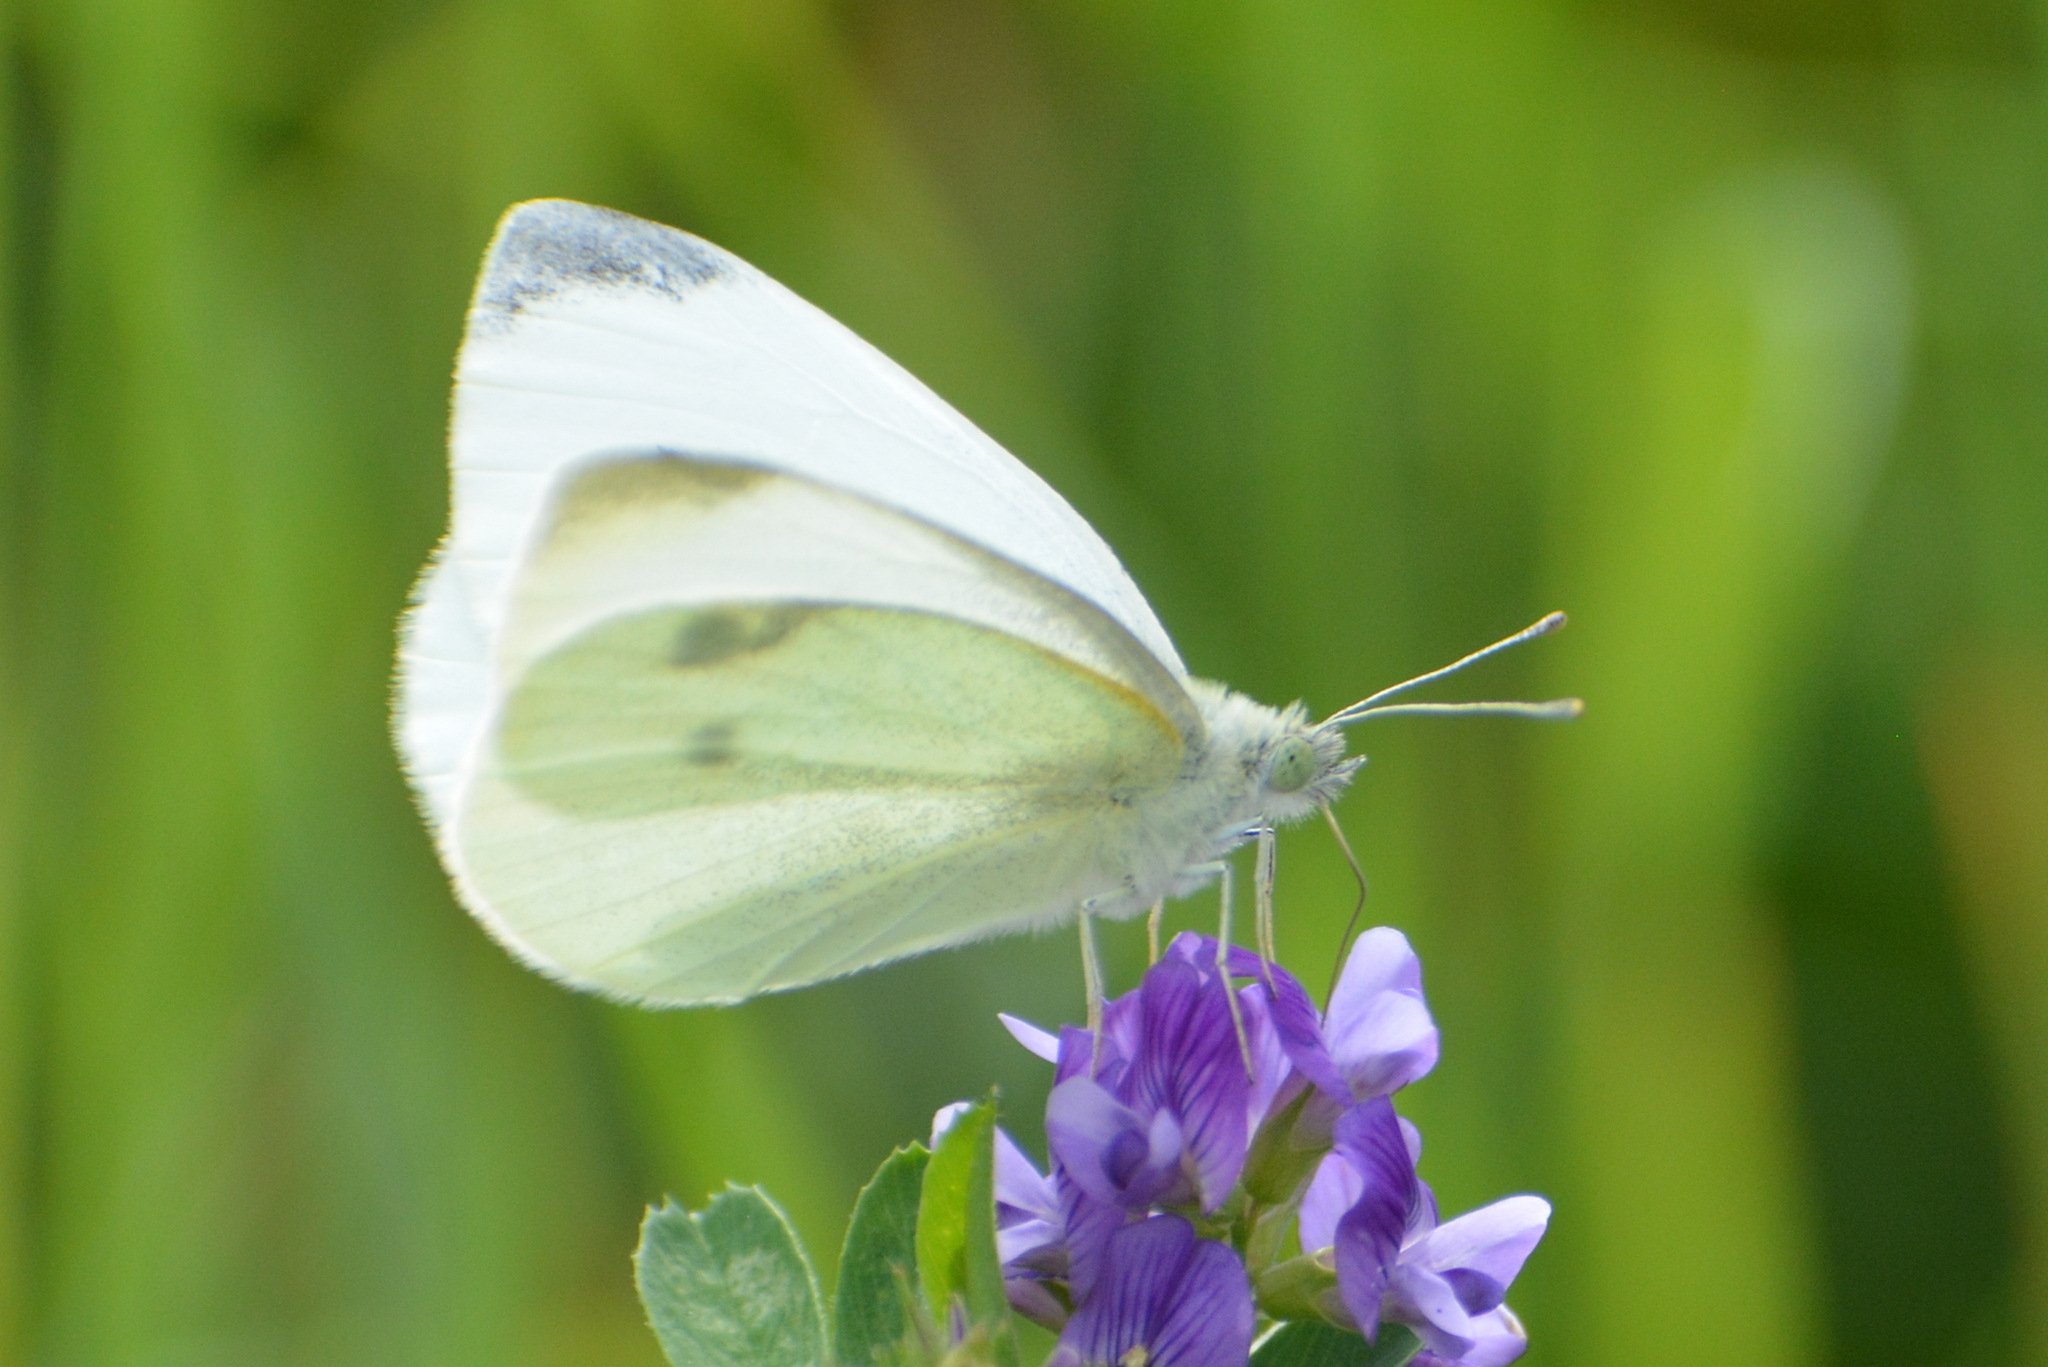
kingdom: Animalia
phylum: Arthropoda
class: Insecta
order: Lepidoptera
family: Pieridae
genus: Pieris
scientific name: Pieris rapae
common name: Small white
